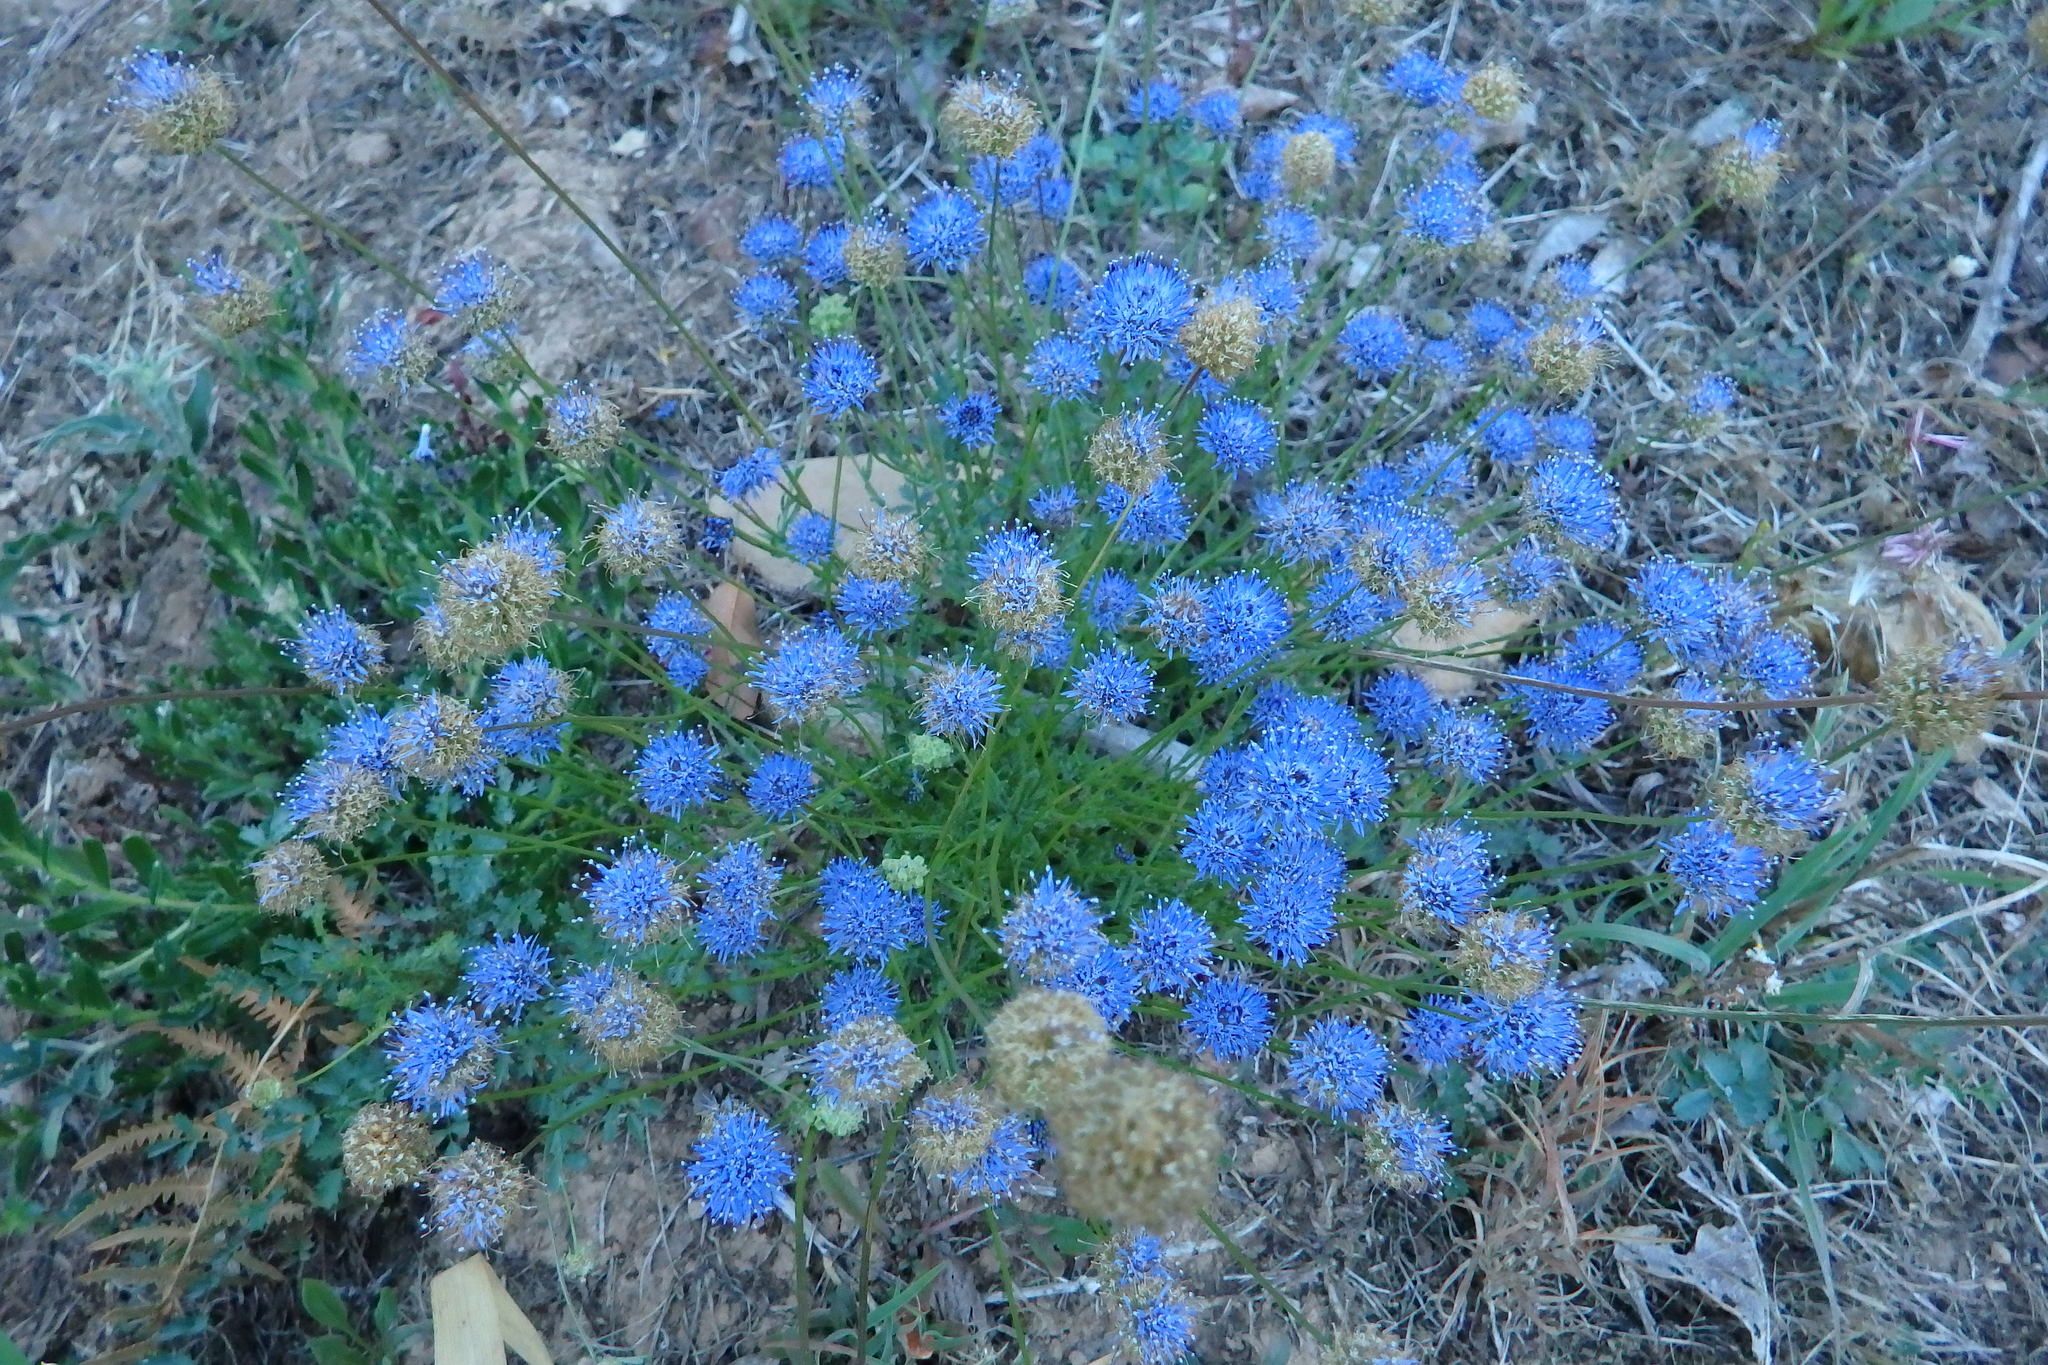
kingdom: Plantae
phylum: Tracheophyta
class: Magnoliopsida
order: Asterales
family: Campanulaceae
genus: Jasione
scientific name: Jasione montana
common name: Sheep's-bit
